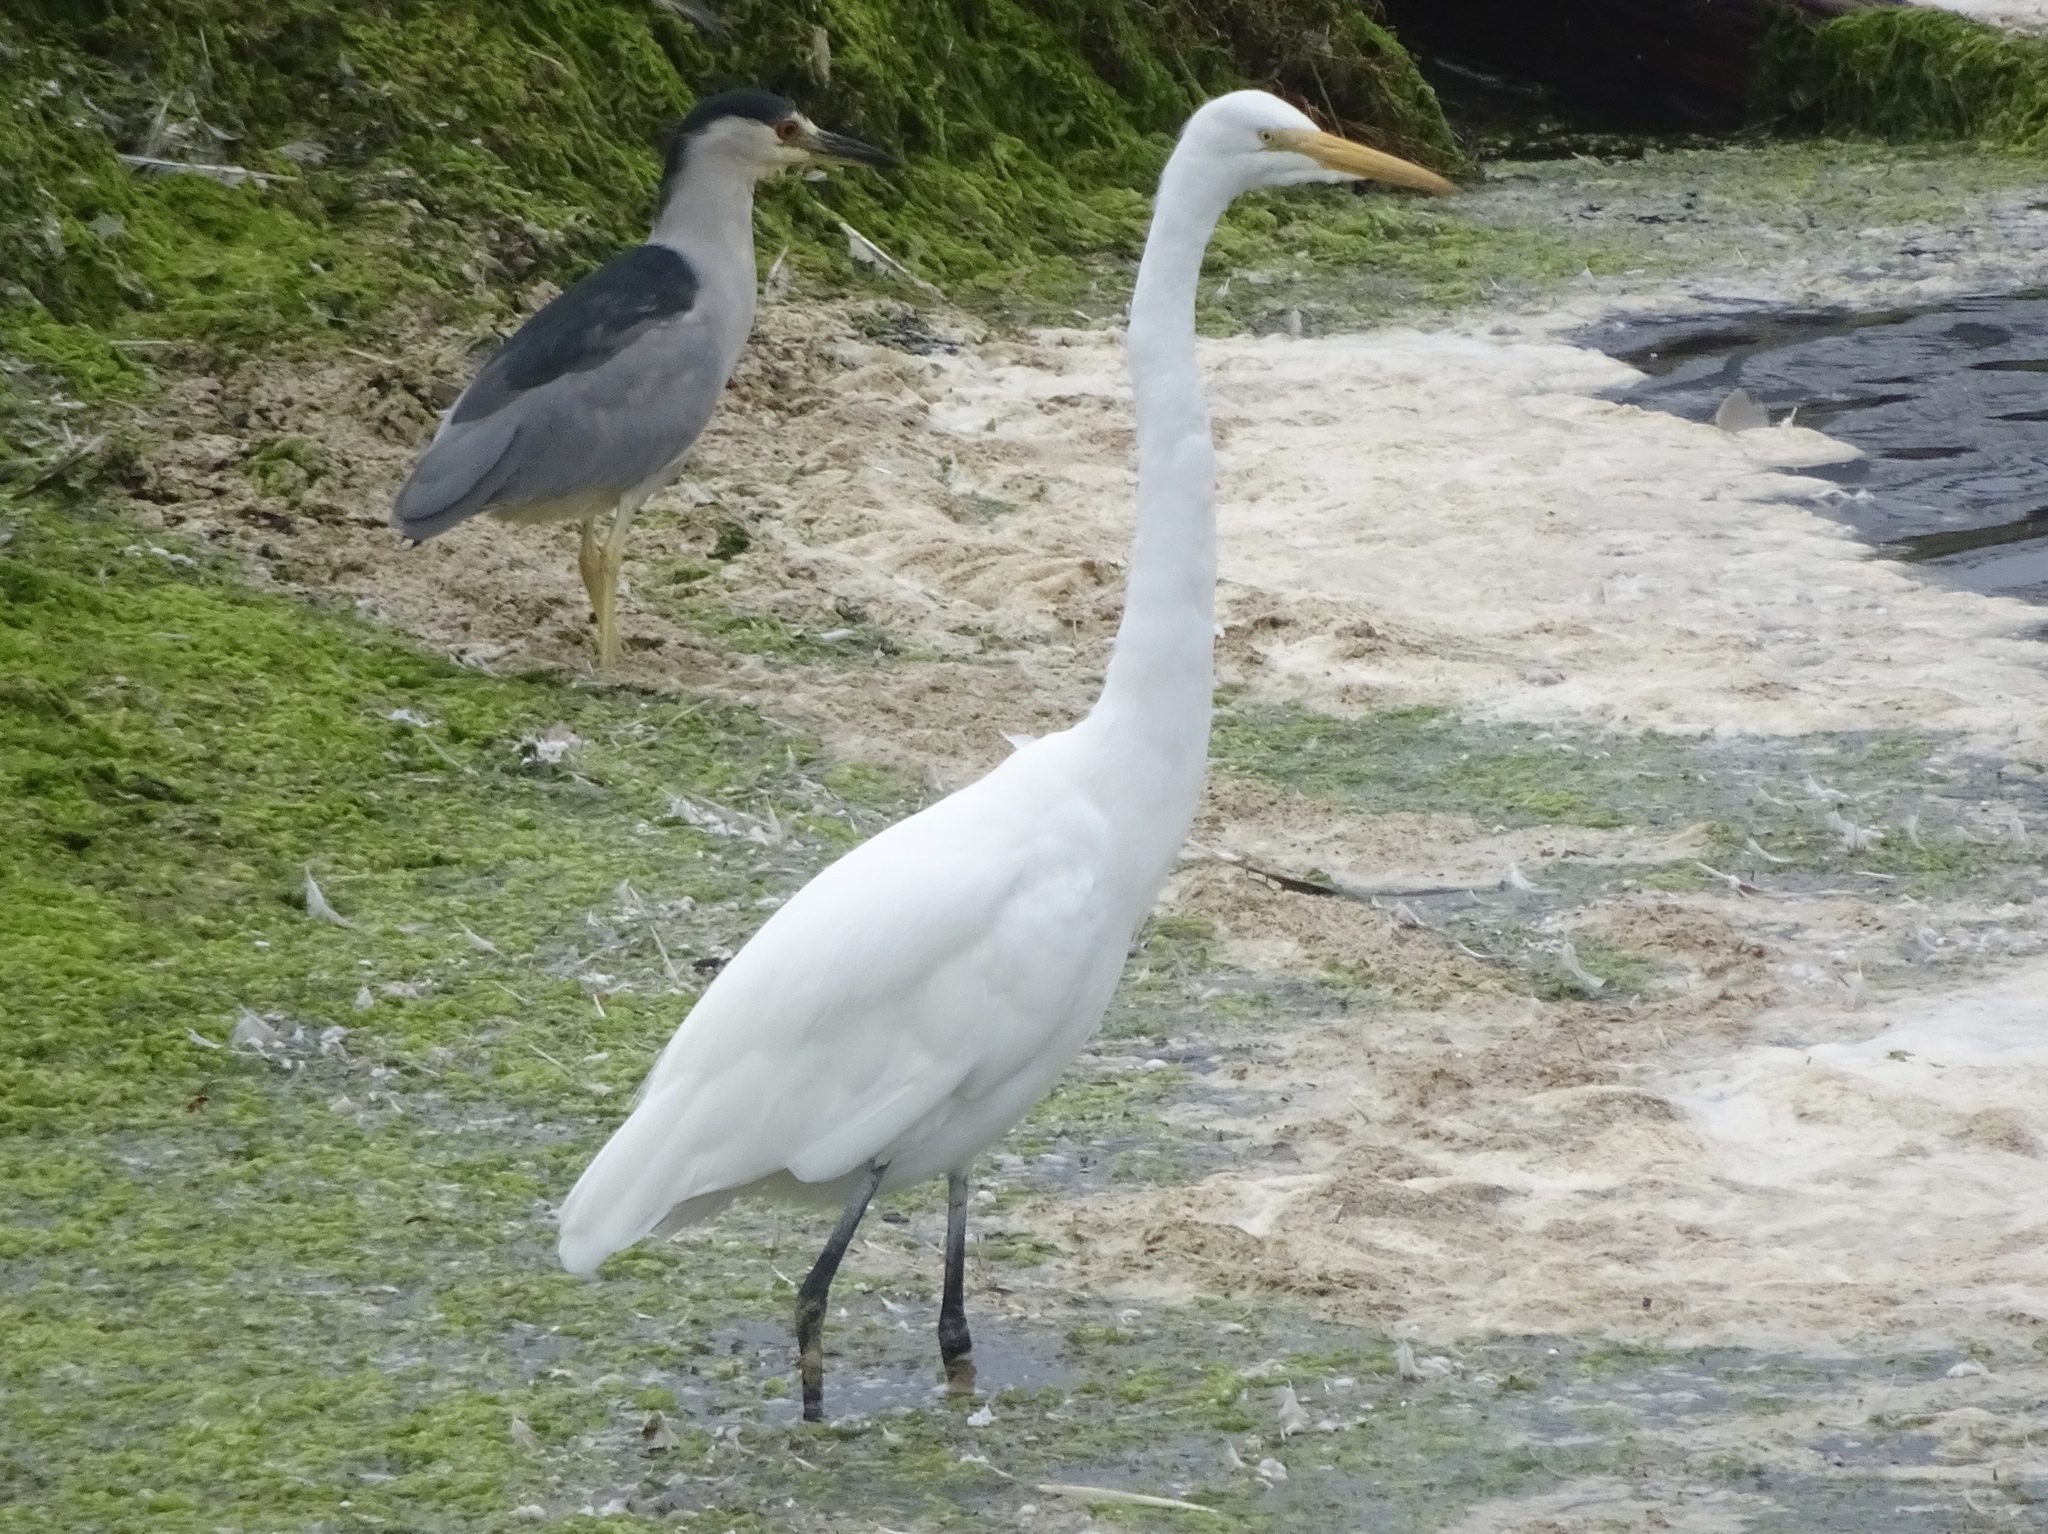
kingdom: Animalia
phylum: Chordata
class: Aves
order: Pelecaniformes
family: Ardeidae
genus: Nycticorax
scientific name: Nycticorax nycticorax
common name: Black-crowned night heron
